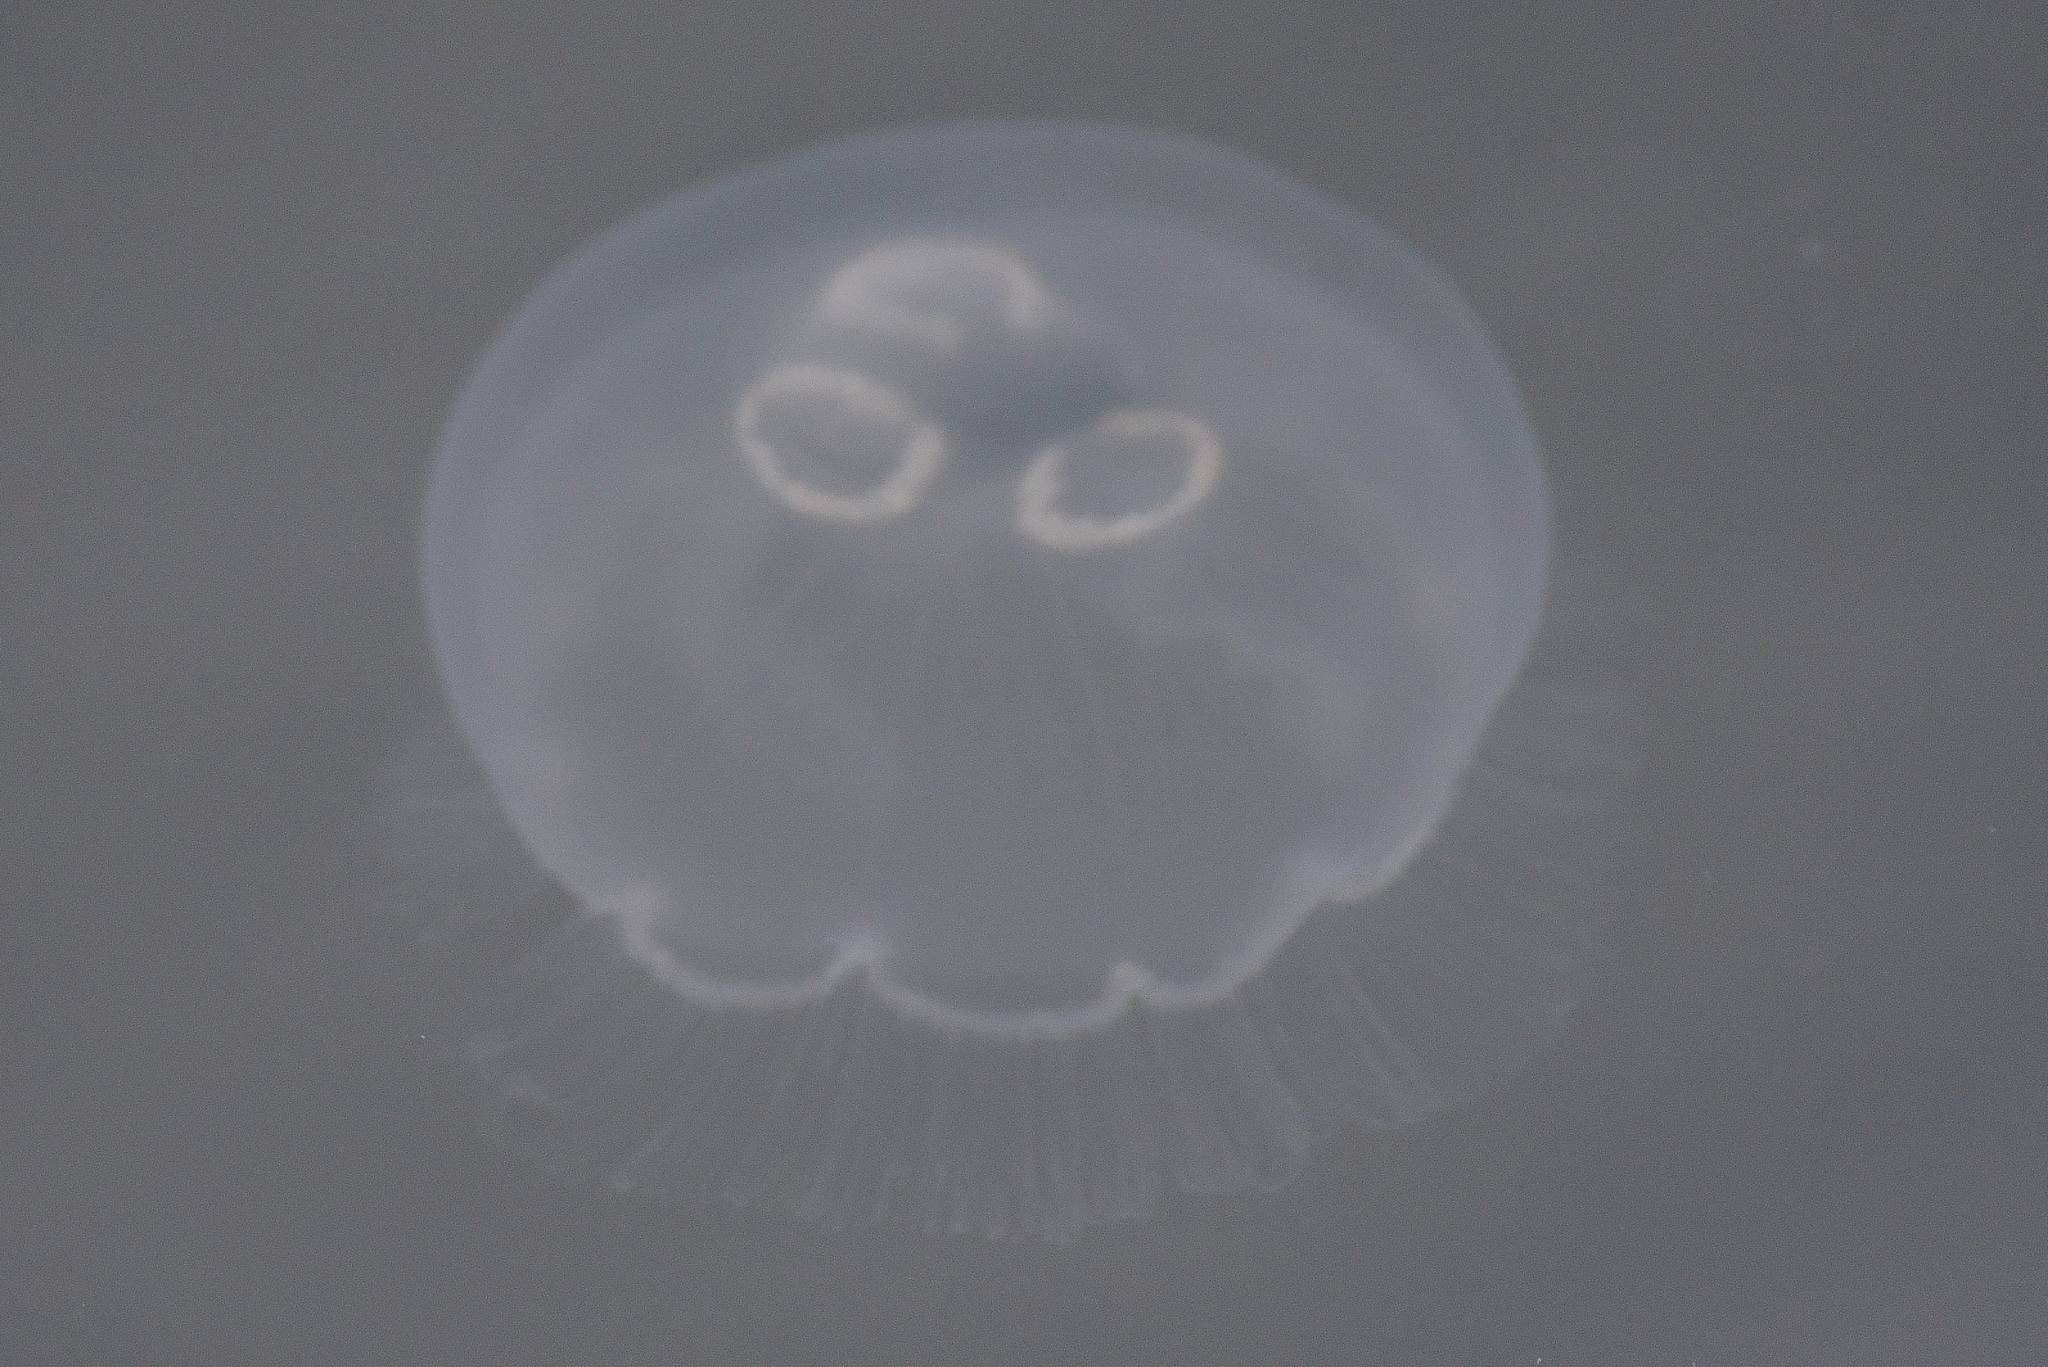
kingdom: Animalia
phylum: Cnidaria
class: Scyphozoa
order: Semaeostomeae
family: Ulmaridae
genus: Aurelia
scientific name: Aurelia labiata
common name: Pacific moon jelly
